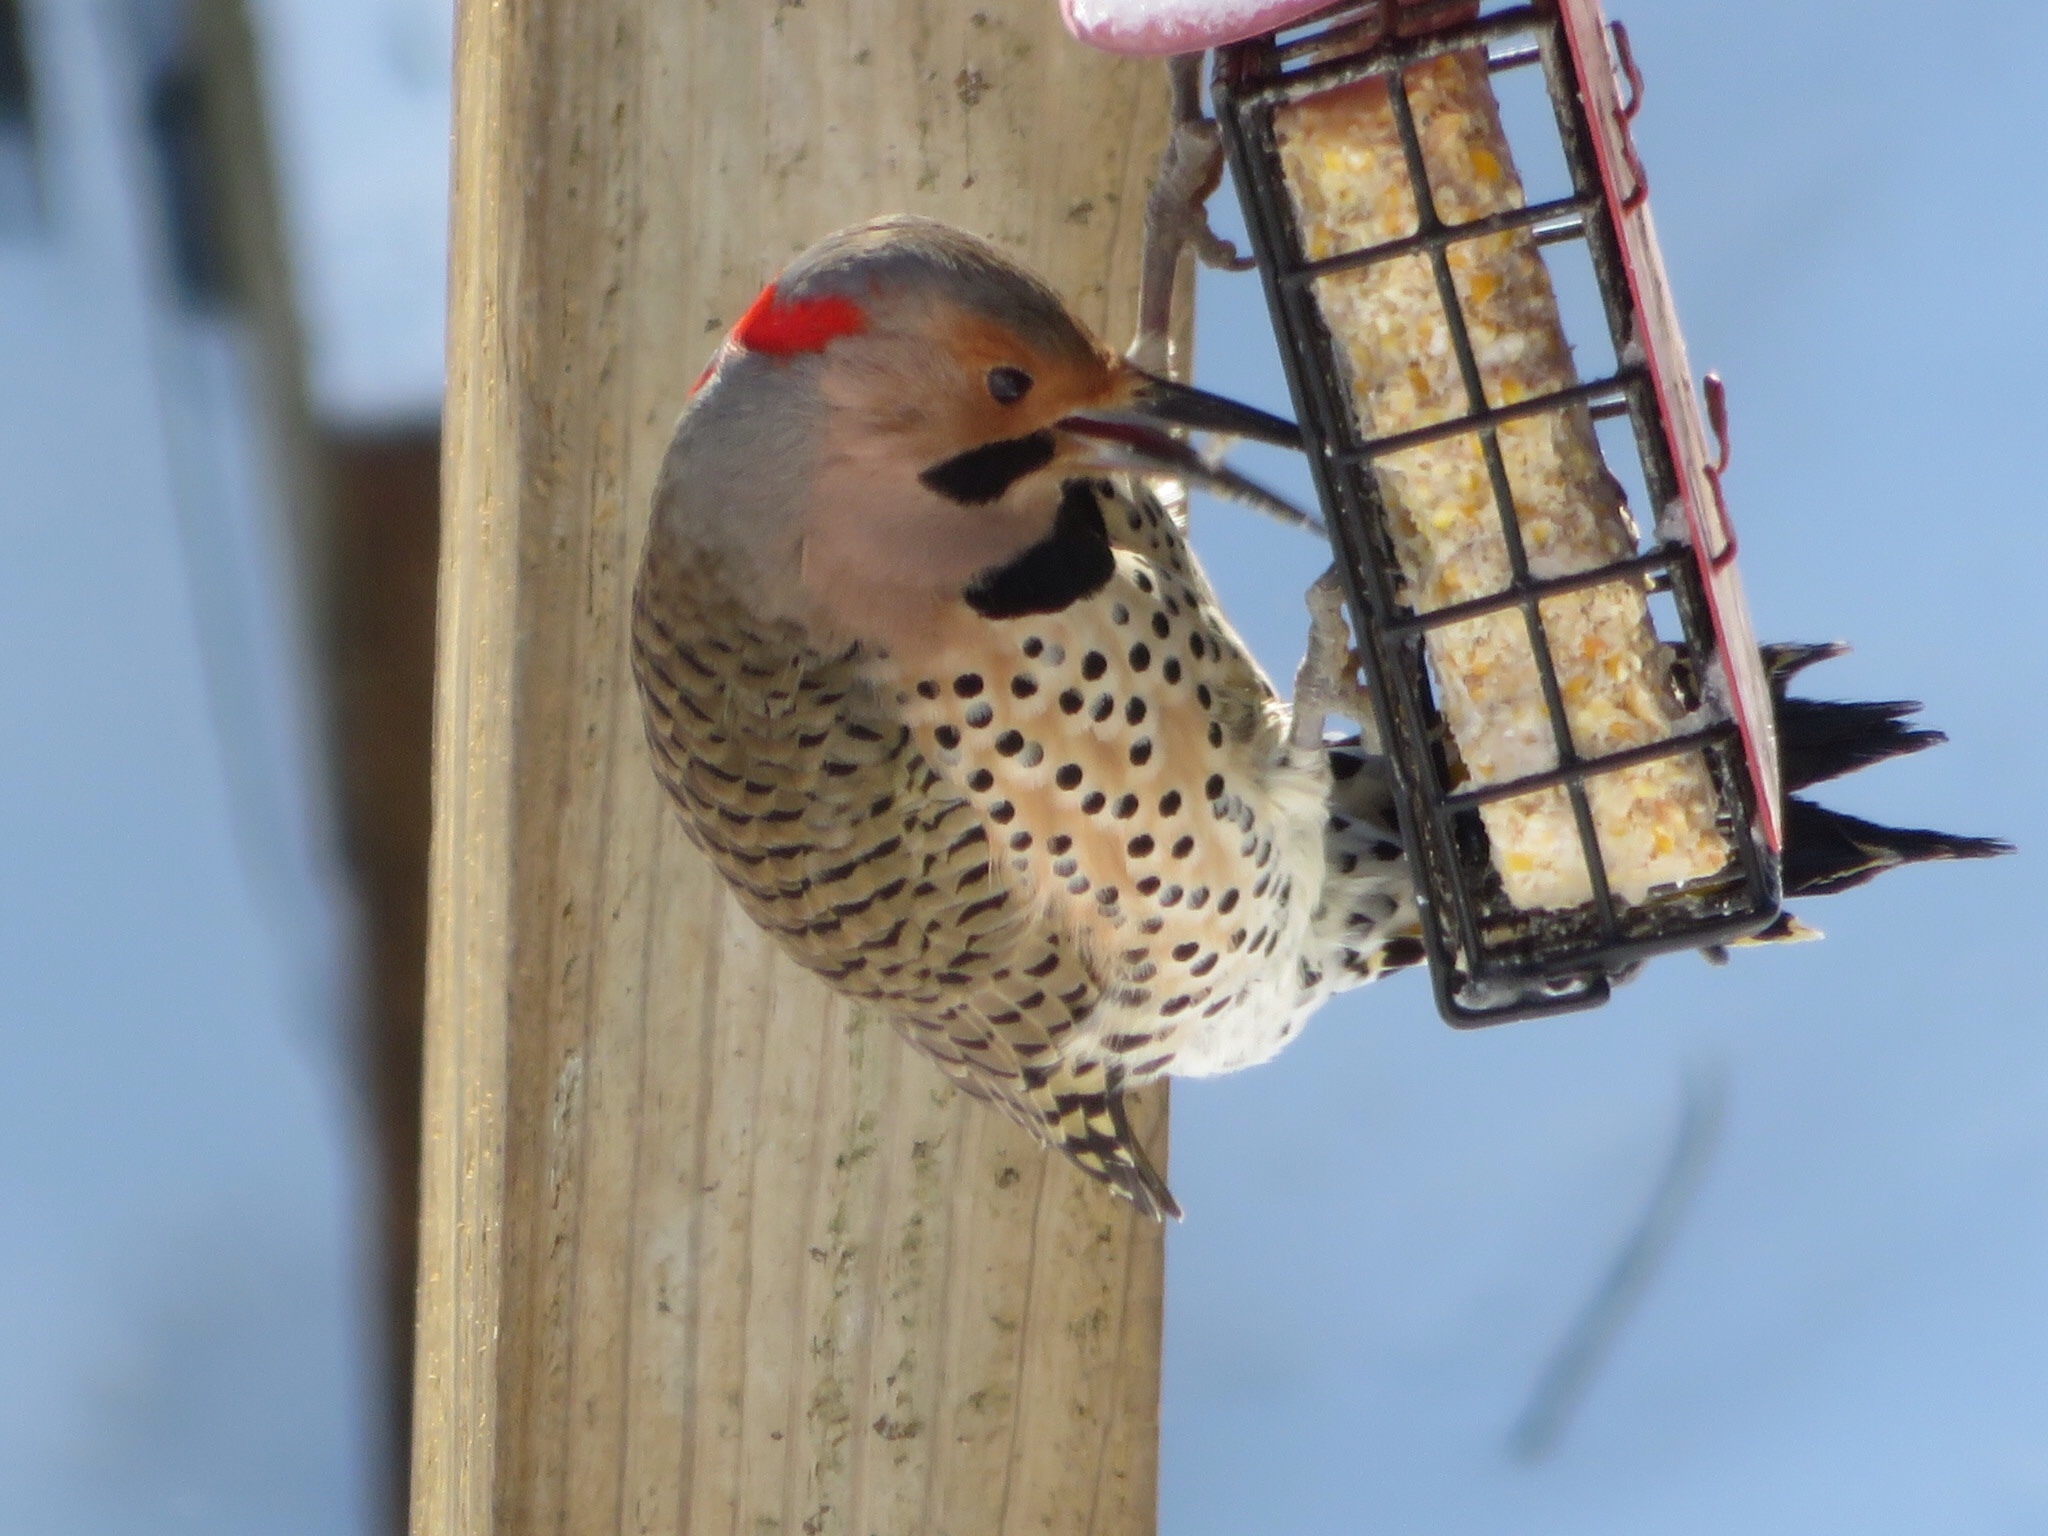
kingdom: Animalia
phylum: Chordata
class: Aves
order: Piciformes
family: Picidae
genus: Colaptes
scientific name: Colaptes auratus
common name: Northern flicker
